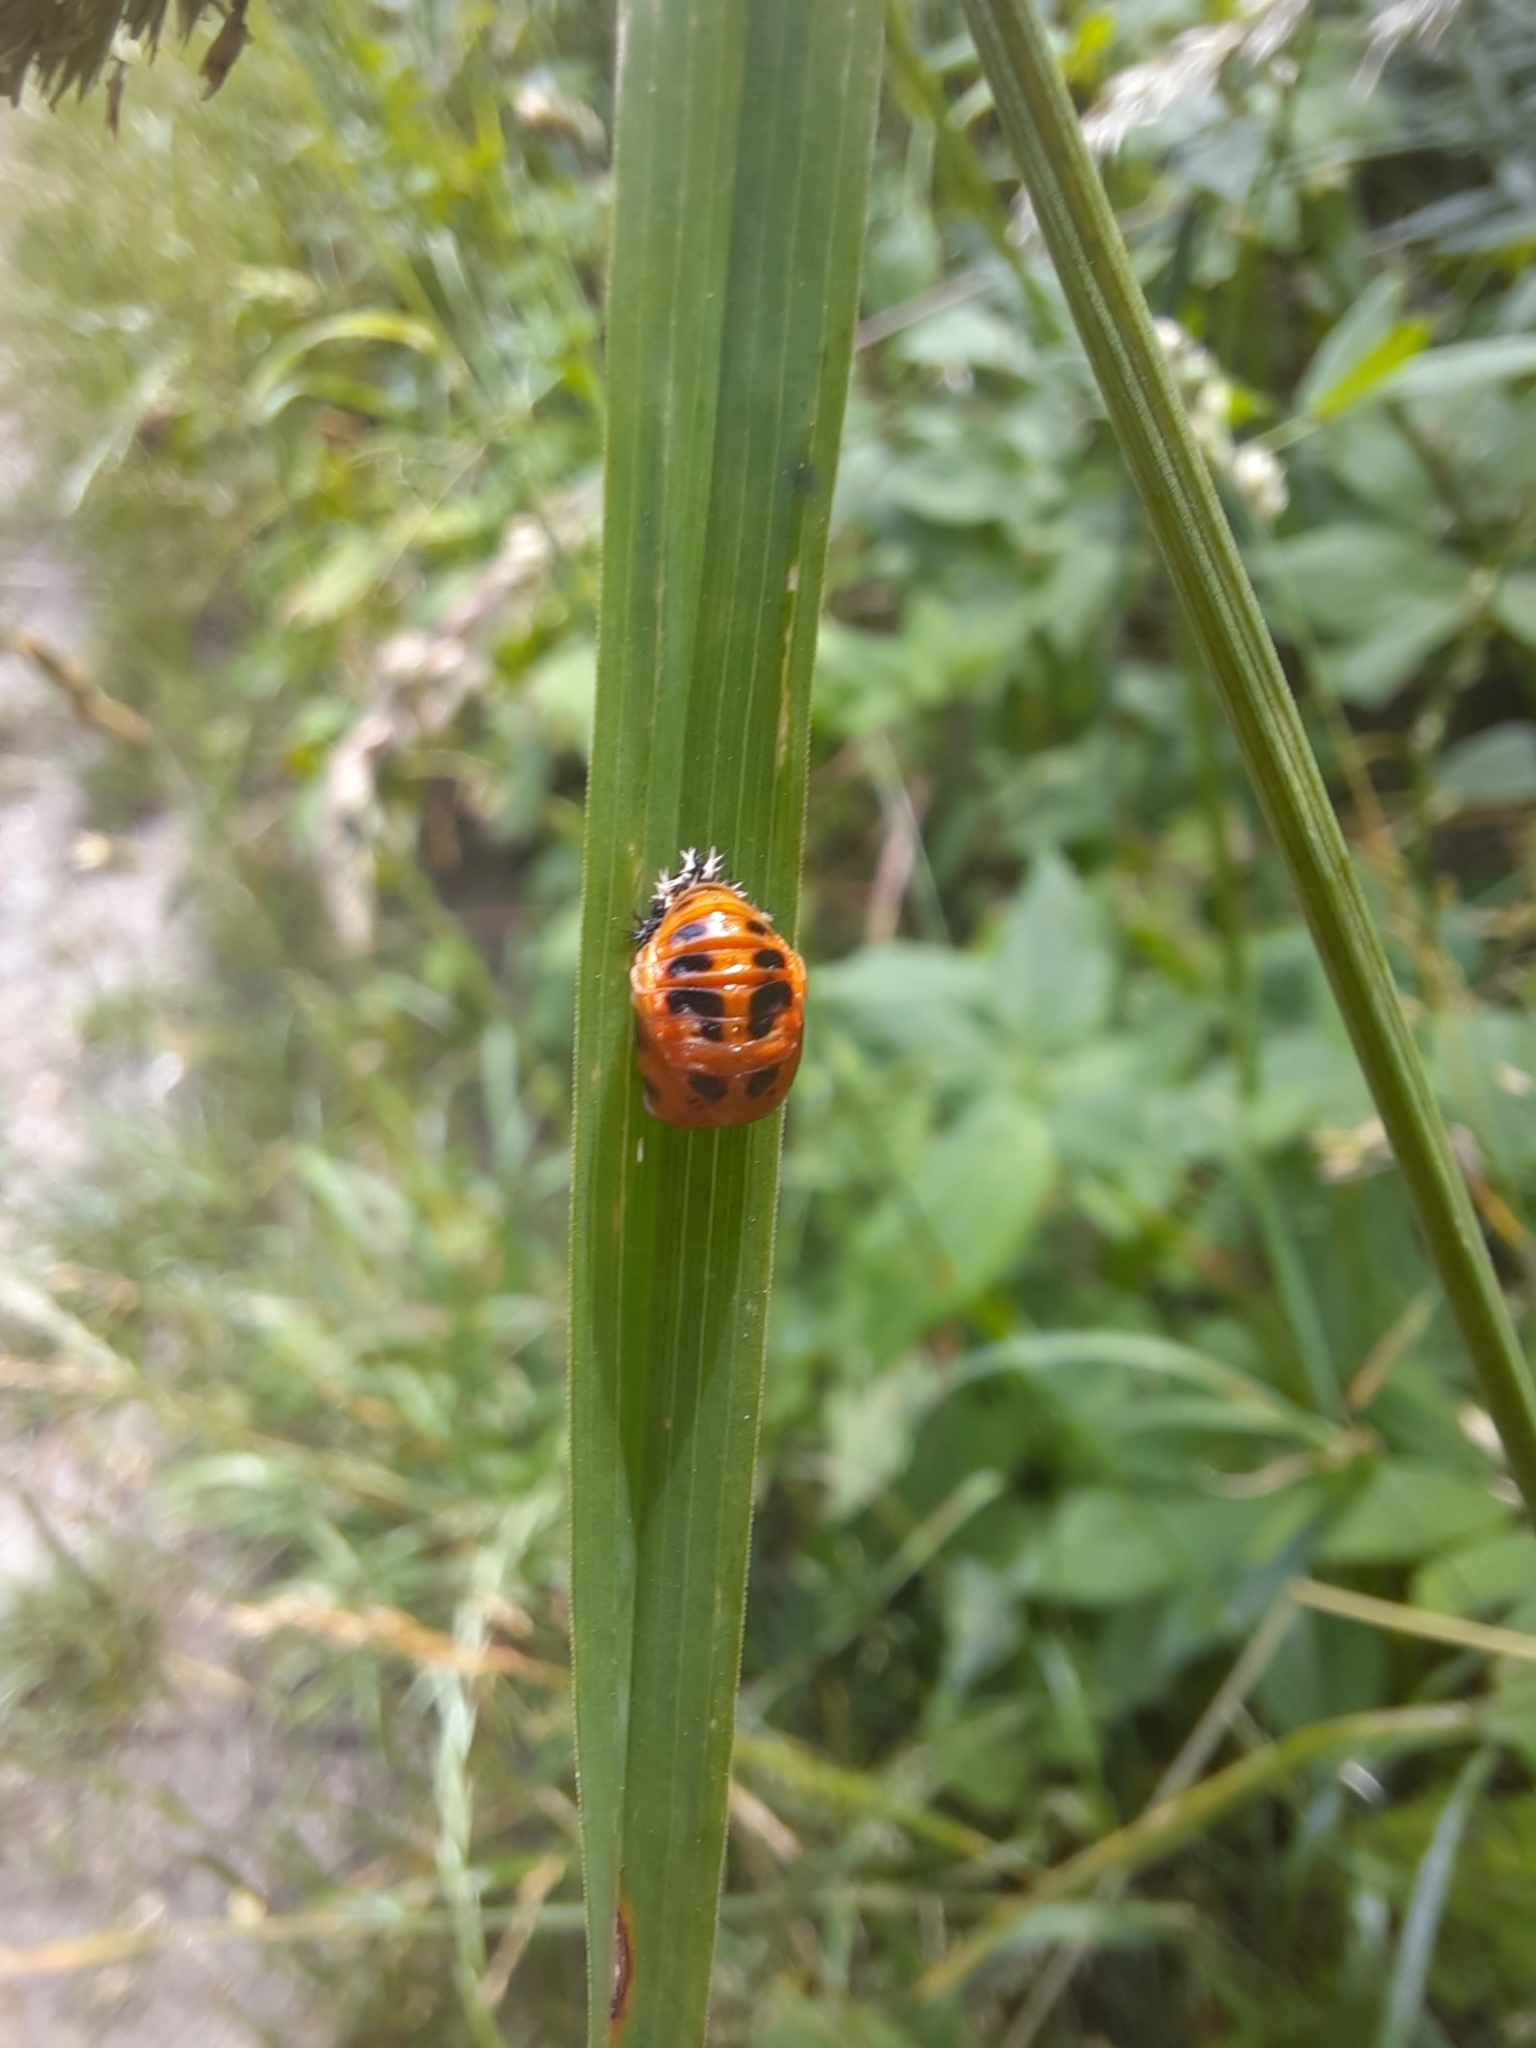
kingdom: Animalia
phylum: Arthropoda
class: Insecta
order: Coleoptera
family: Coccinellidae
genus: Harmonia
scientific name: Harmonia axyridis
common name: Harlequin ladybird
